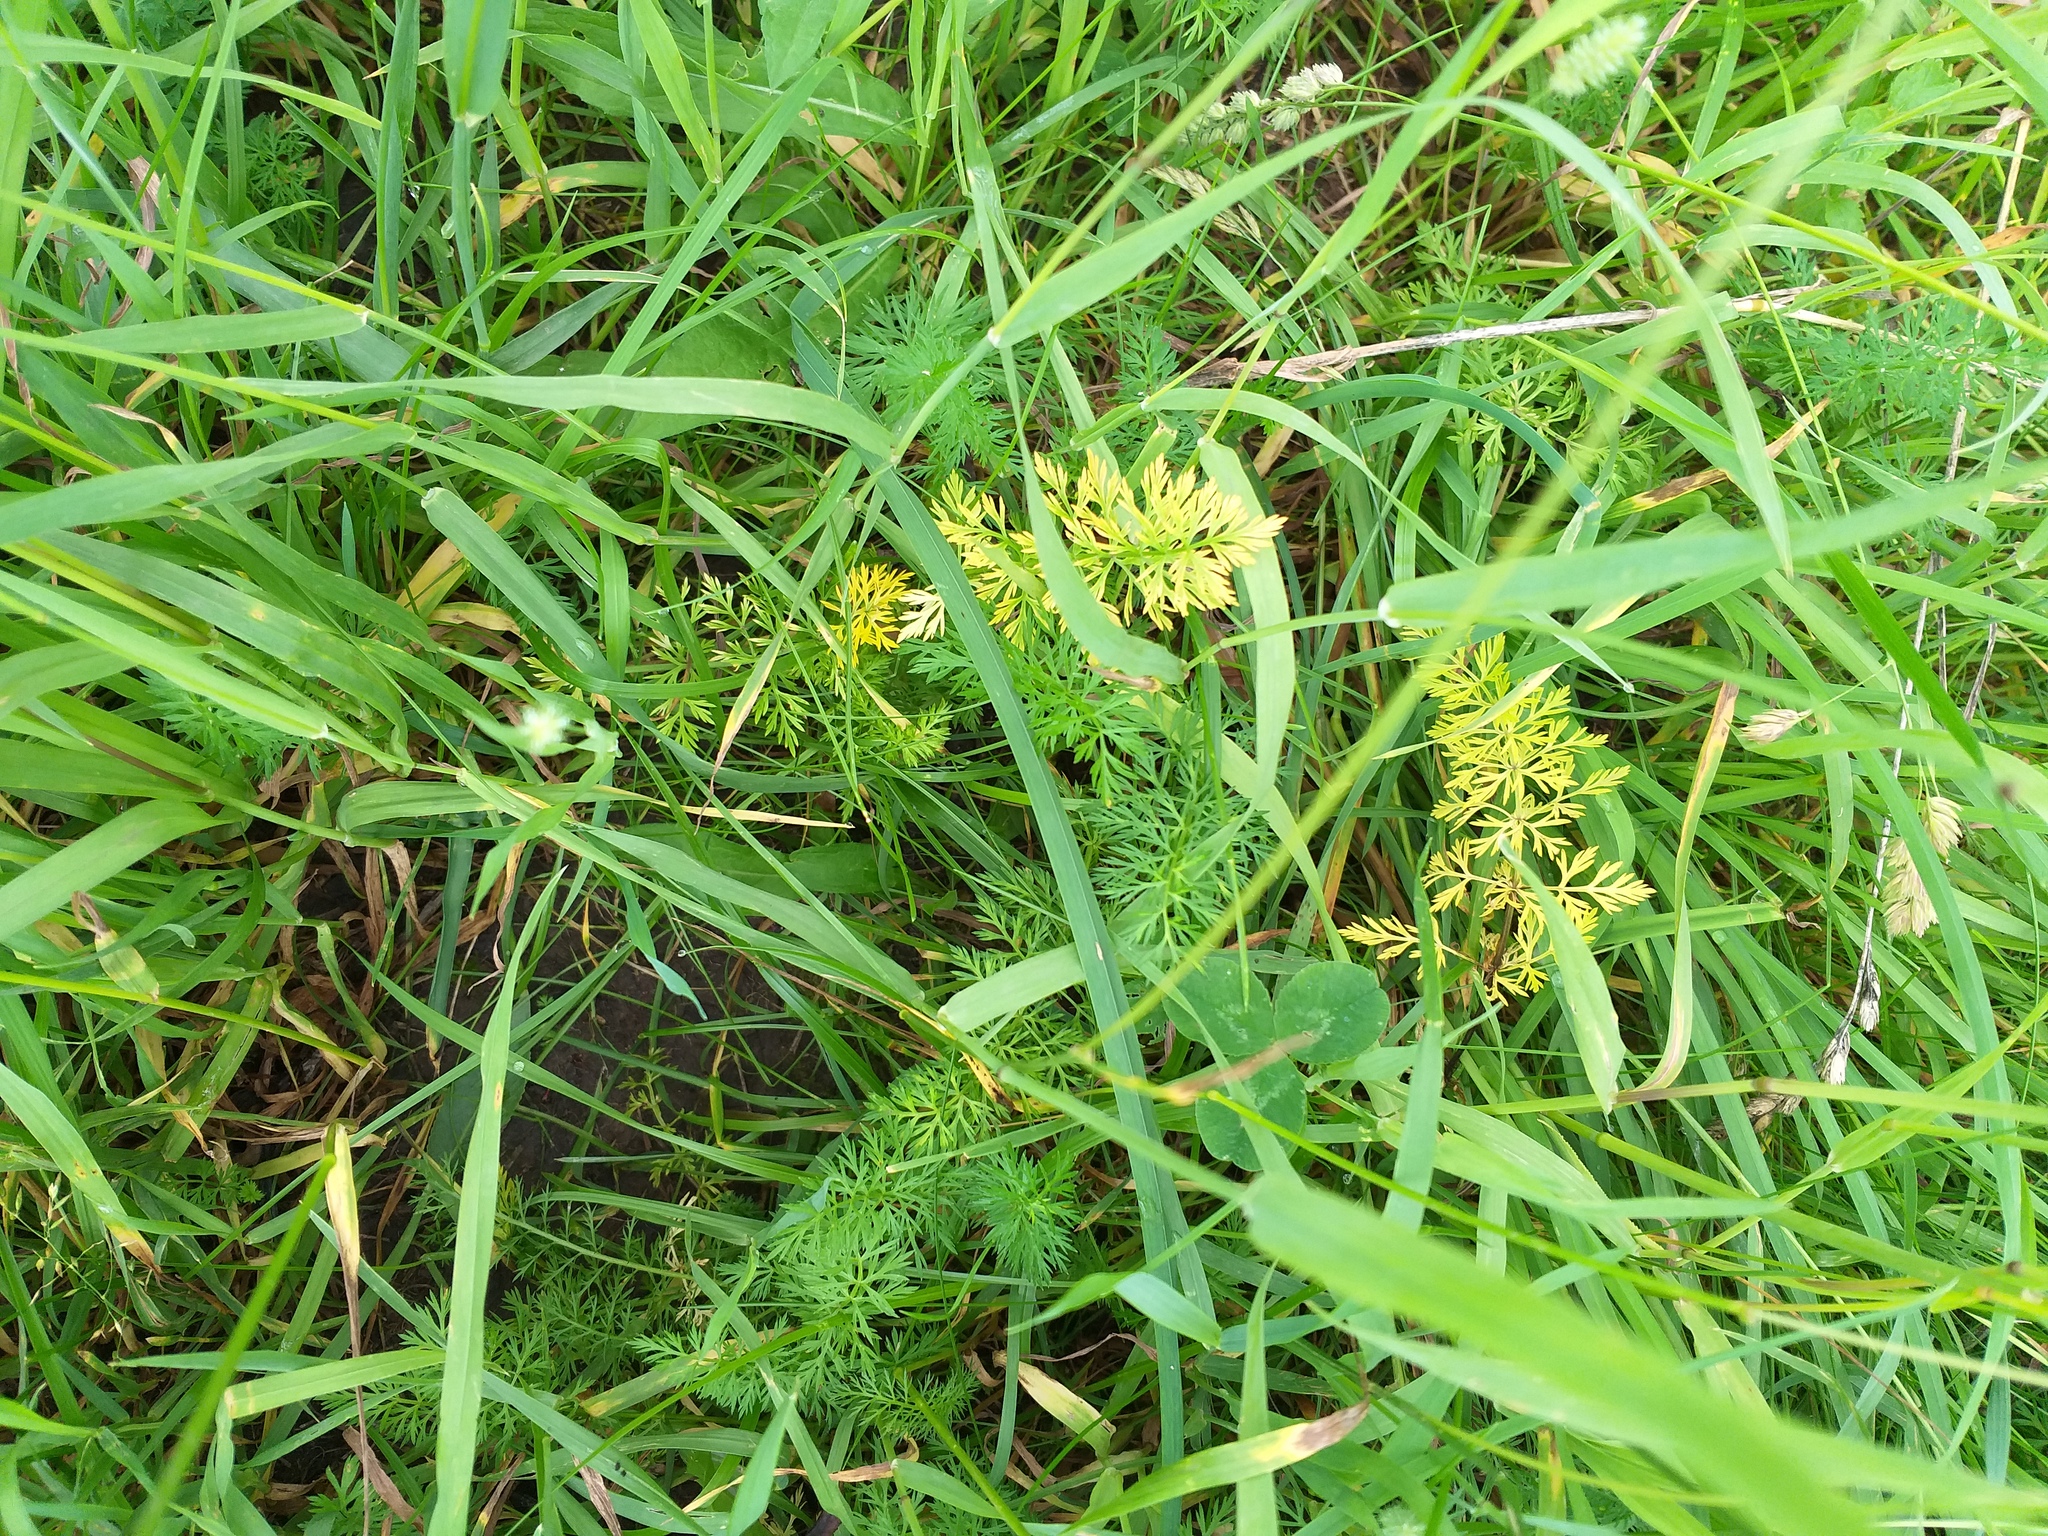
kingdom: Plantae
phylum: Tracheophyta
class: Magnoliopsida
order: Apiales
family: Apiaceae
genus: Carum
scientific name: Carum carvi
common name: Caraway
